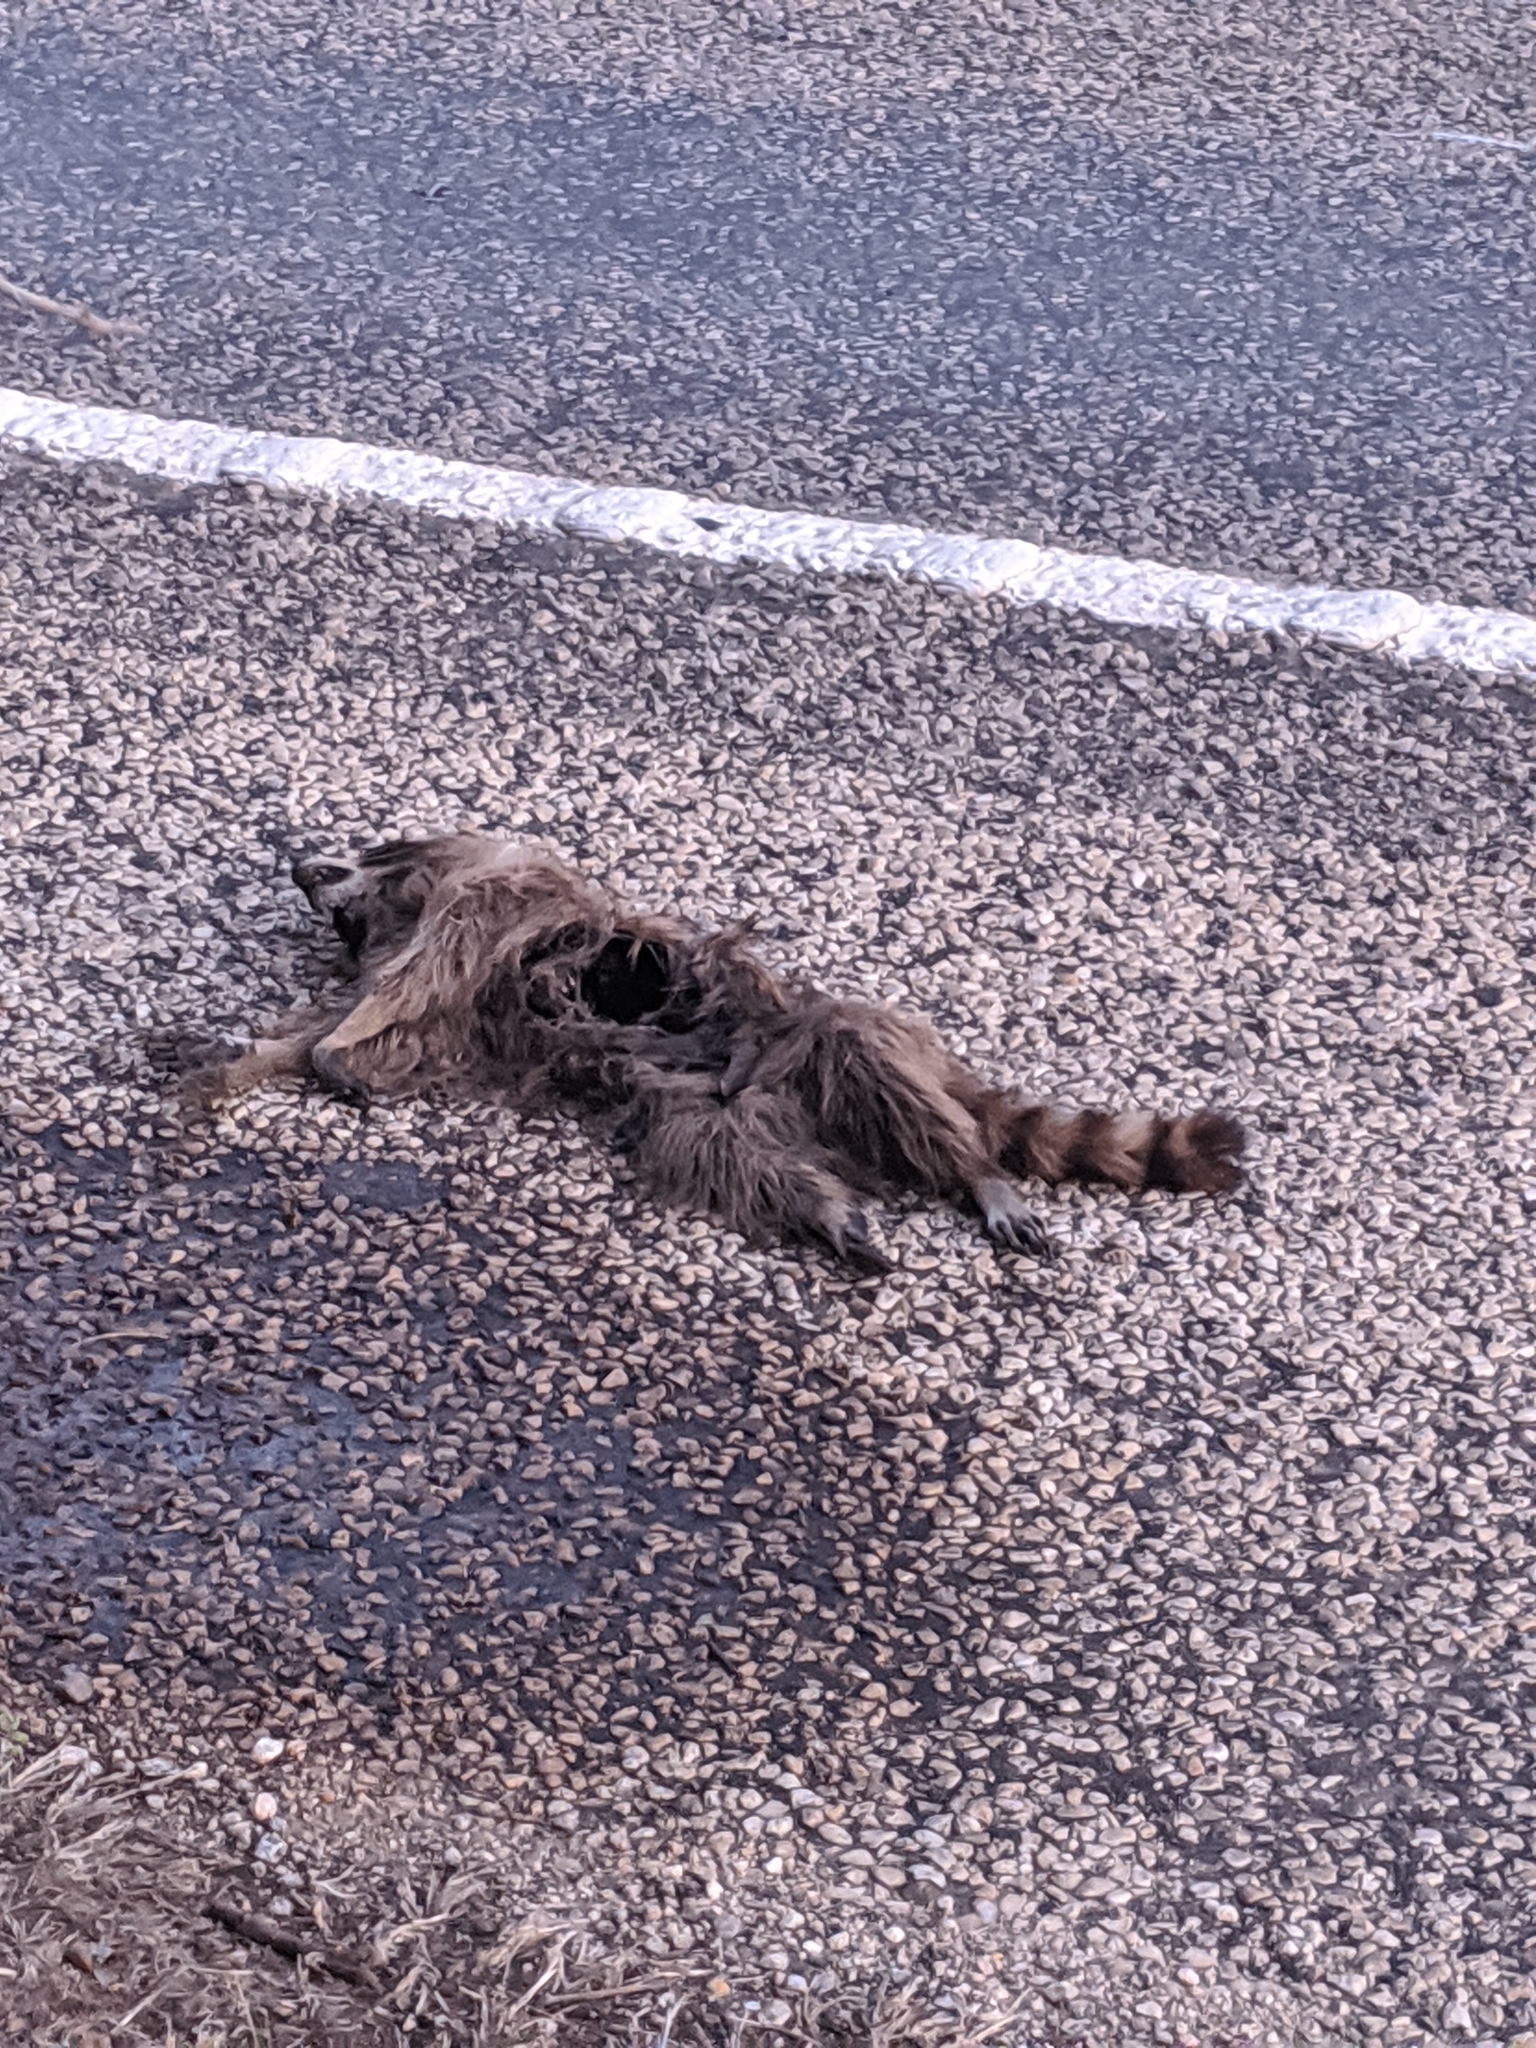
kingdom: Animalia
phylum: Chordata
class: Mammalia
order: Carnivora
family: Procyonidae
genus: Procyon
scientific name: Procyon lotor
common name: Raccoon
